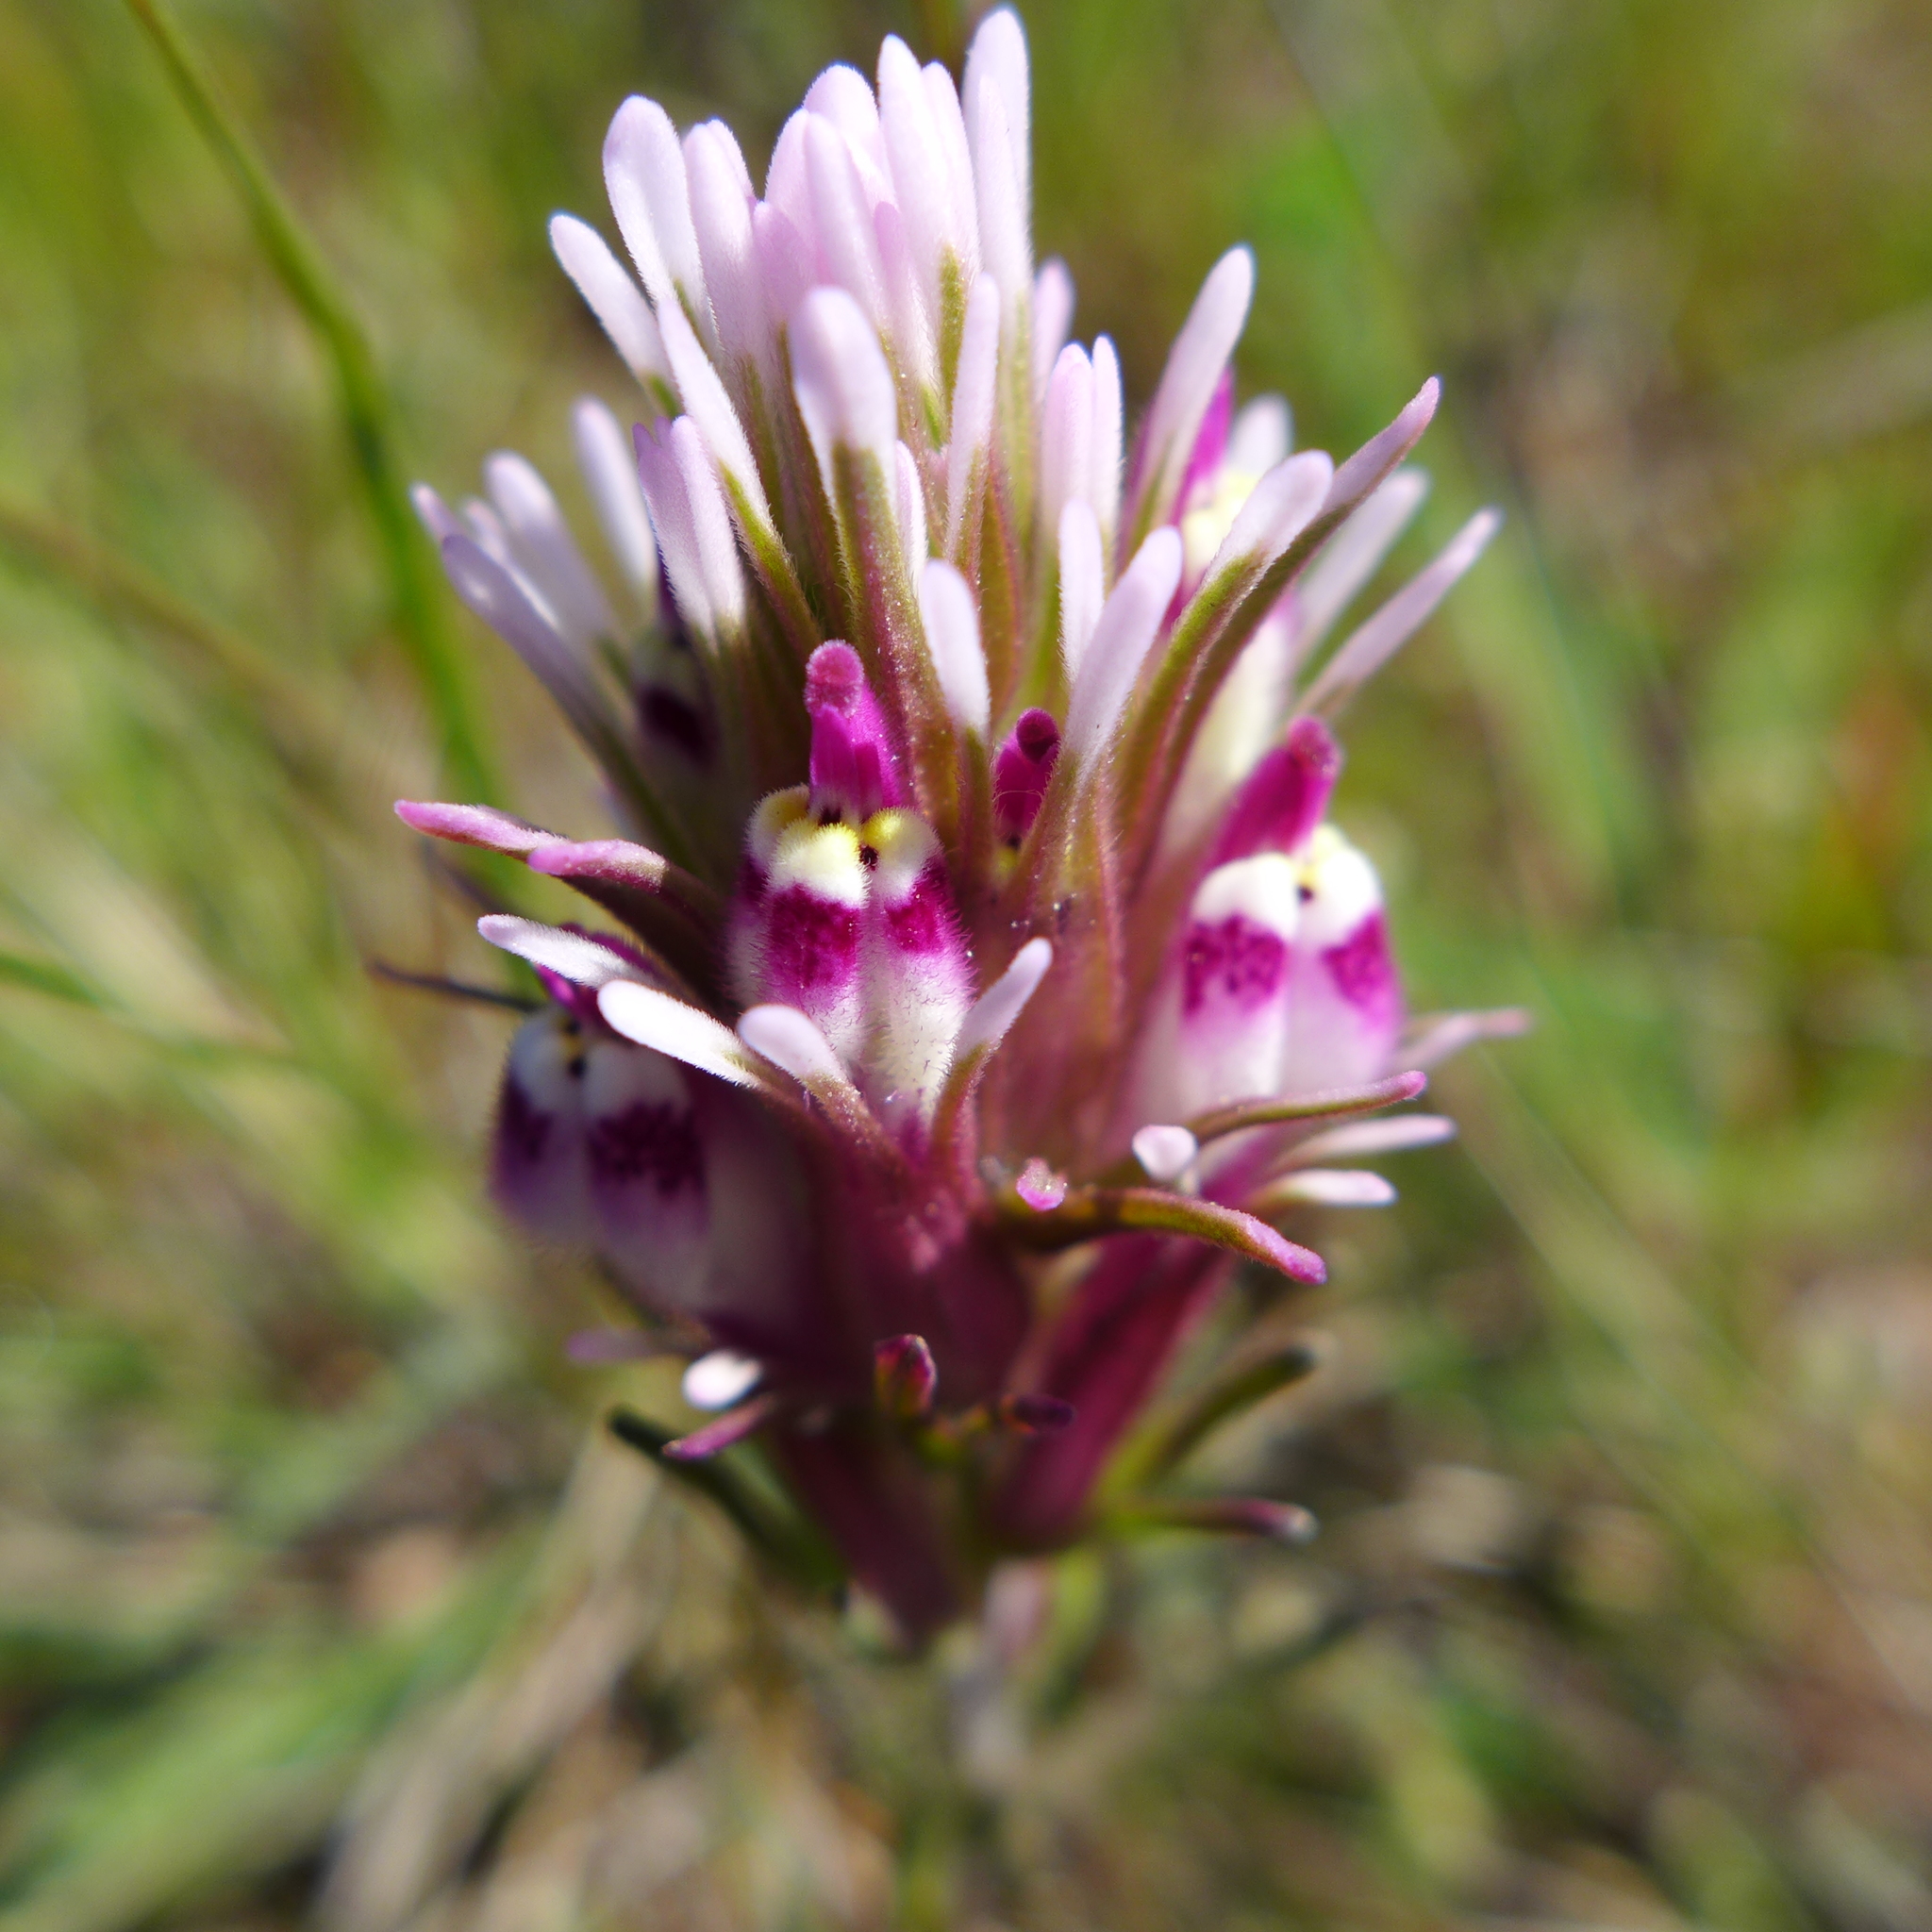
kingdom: Plantae
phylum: Tracheophyta
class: Magnoliopsida
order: Lamiales
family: Orobanchaceae
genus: Castilleja
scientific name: Castilleja densiflora
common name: Dense-flower indian paintbrush
